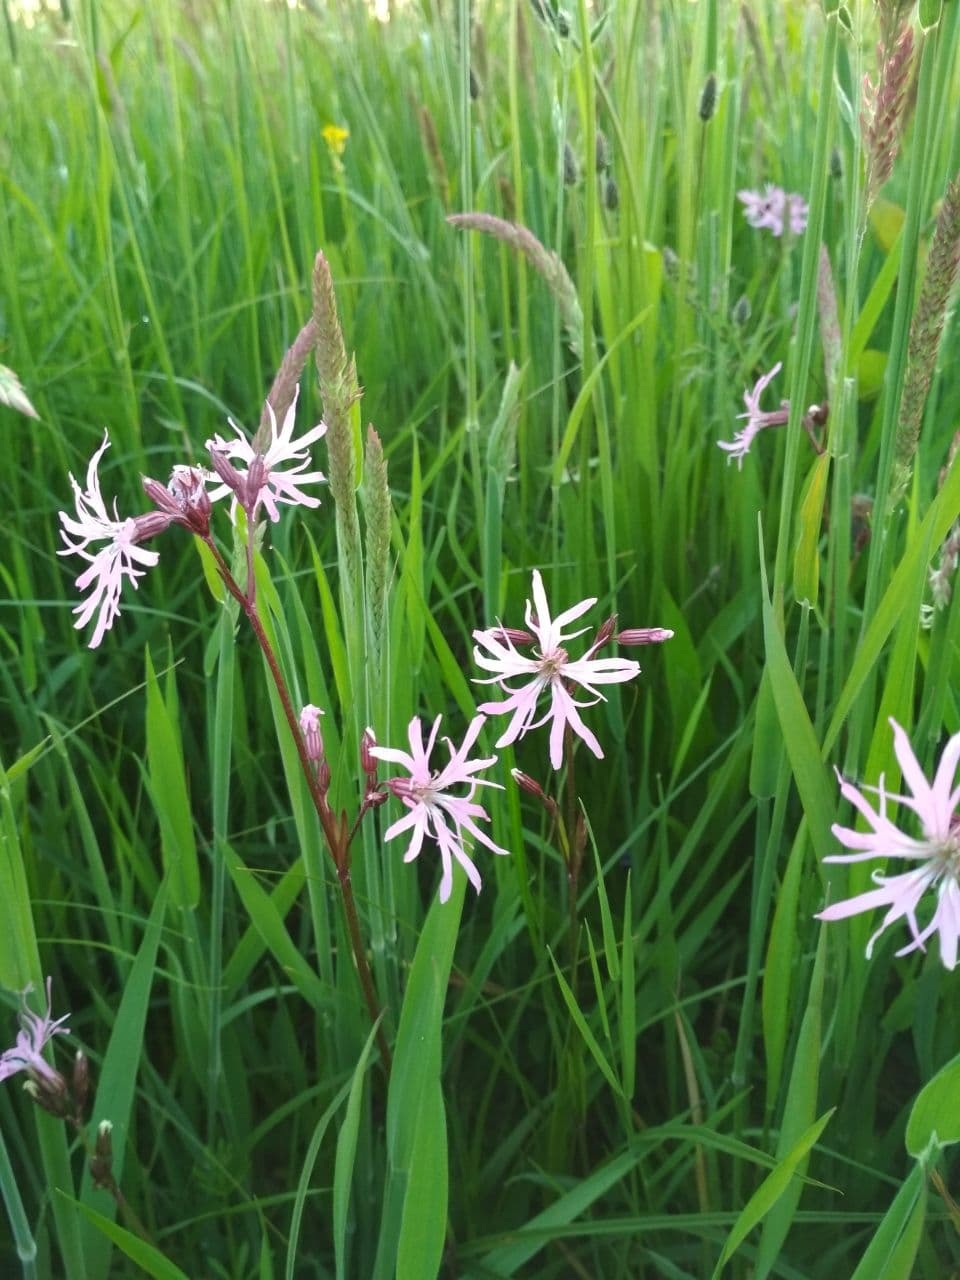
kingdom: Plantae
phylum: Tracheophyta
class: Magnoliopsida
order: Caryophyllales
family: Caryophyllaceae
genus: Silene
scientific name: Silene flos-cuculi
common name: Ragged-robin
